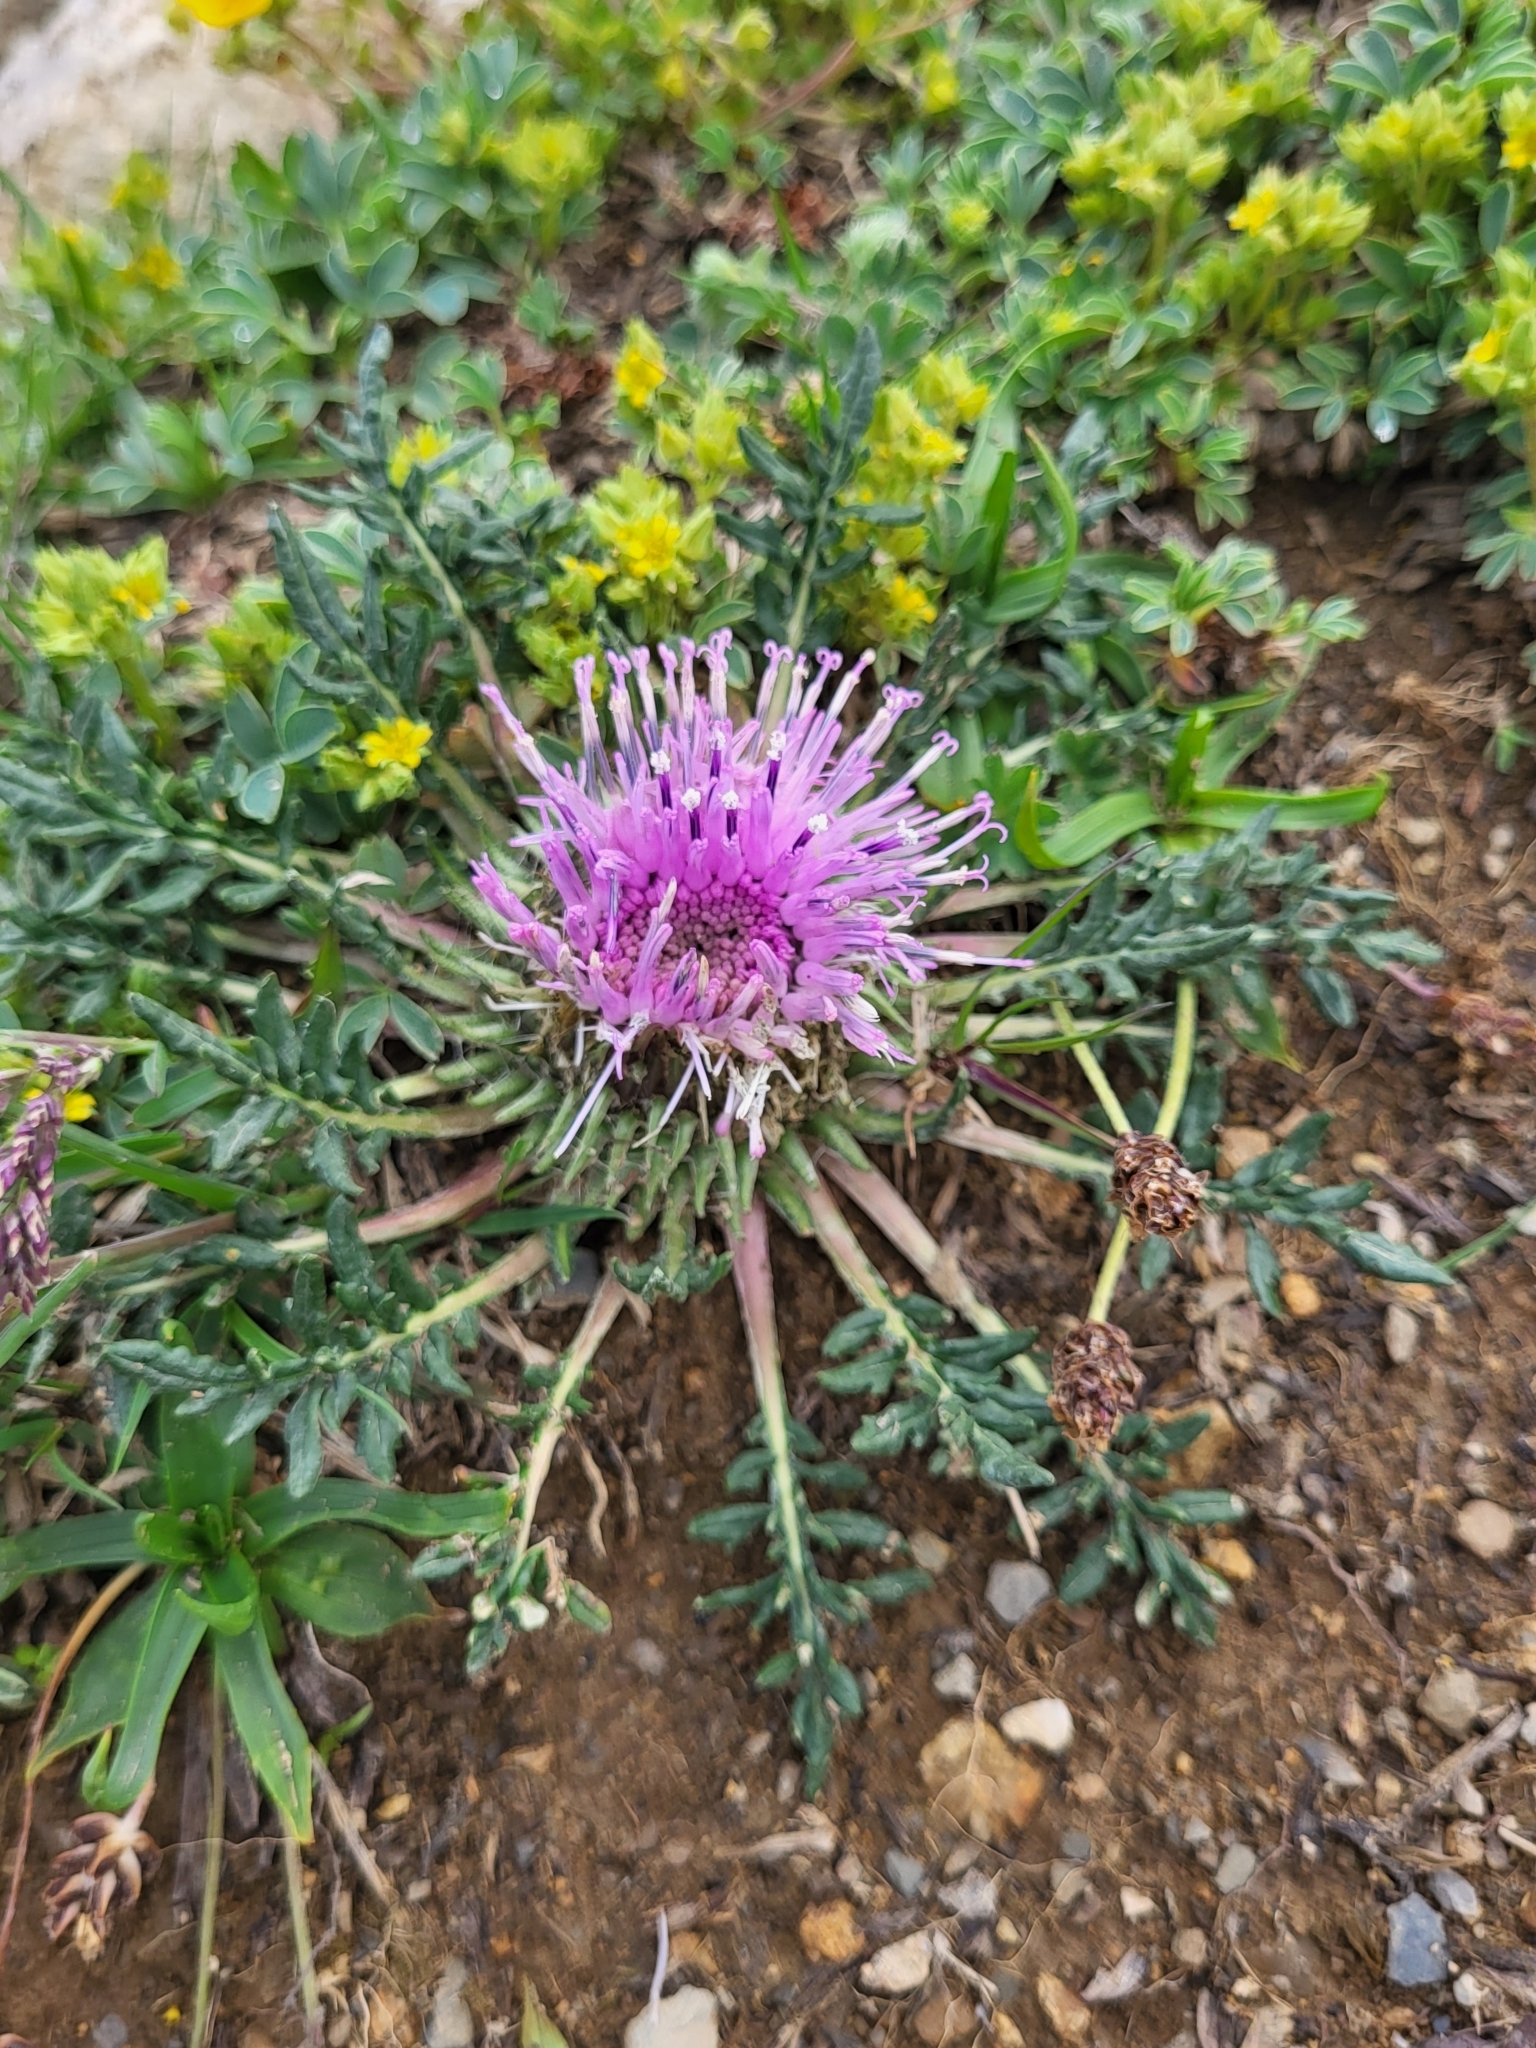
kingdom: Plantae
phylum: Tracheophyta
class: Magnoliopsida
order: Asterales
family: Asteraceae
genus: Jurinea
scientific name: Jurinea moschus
